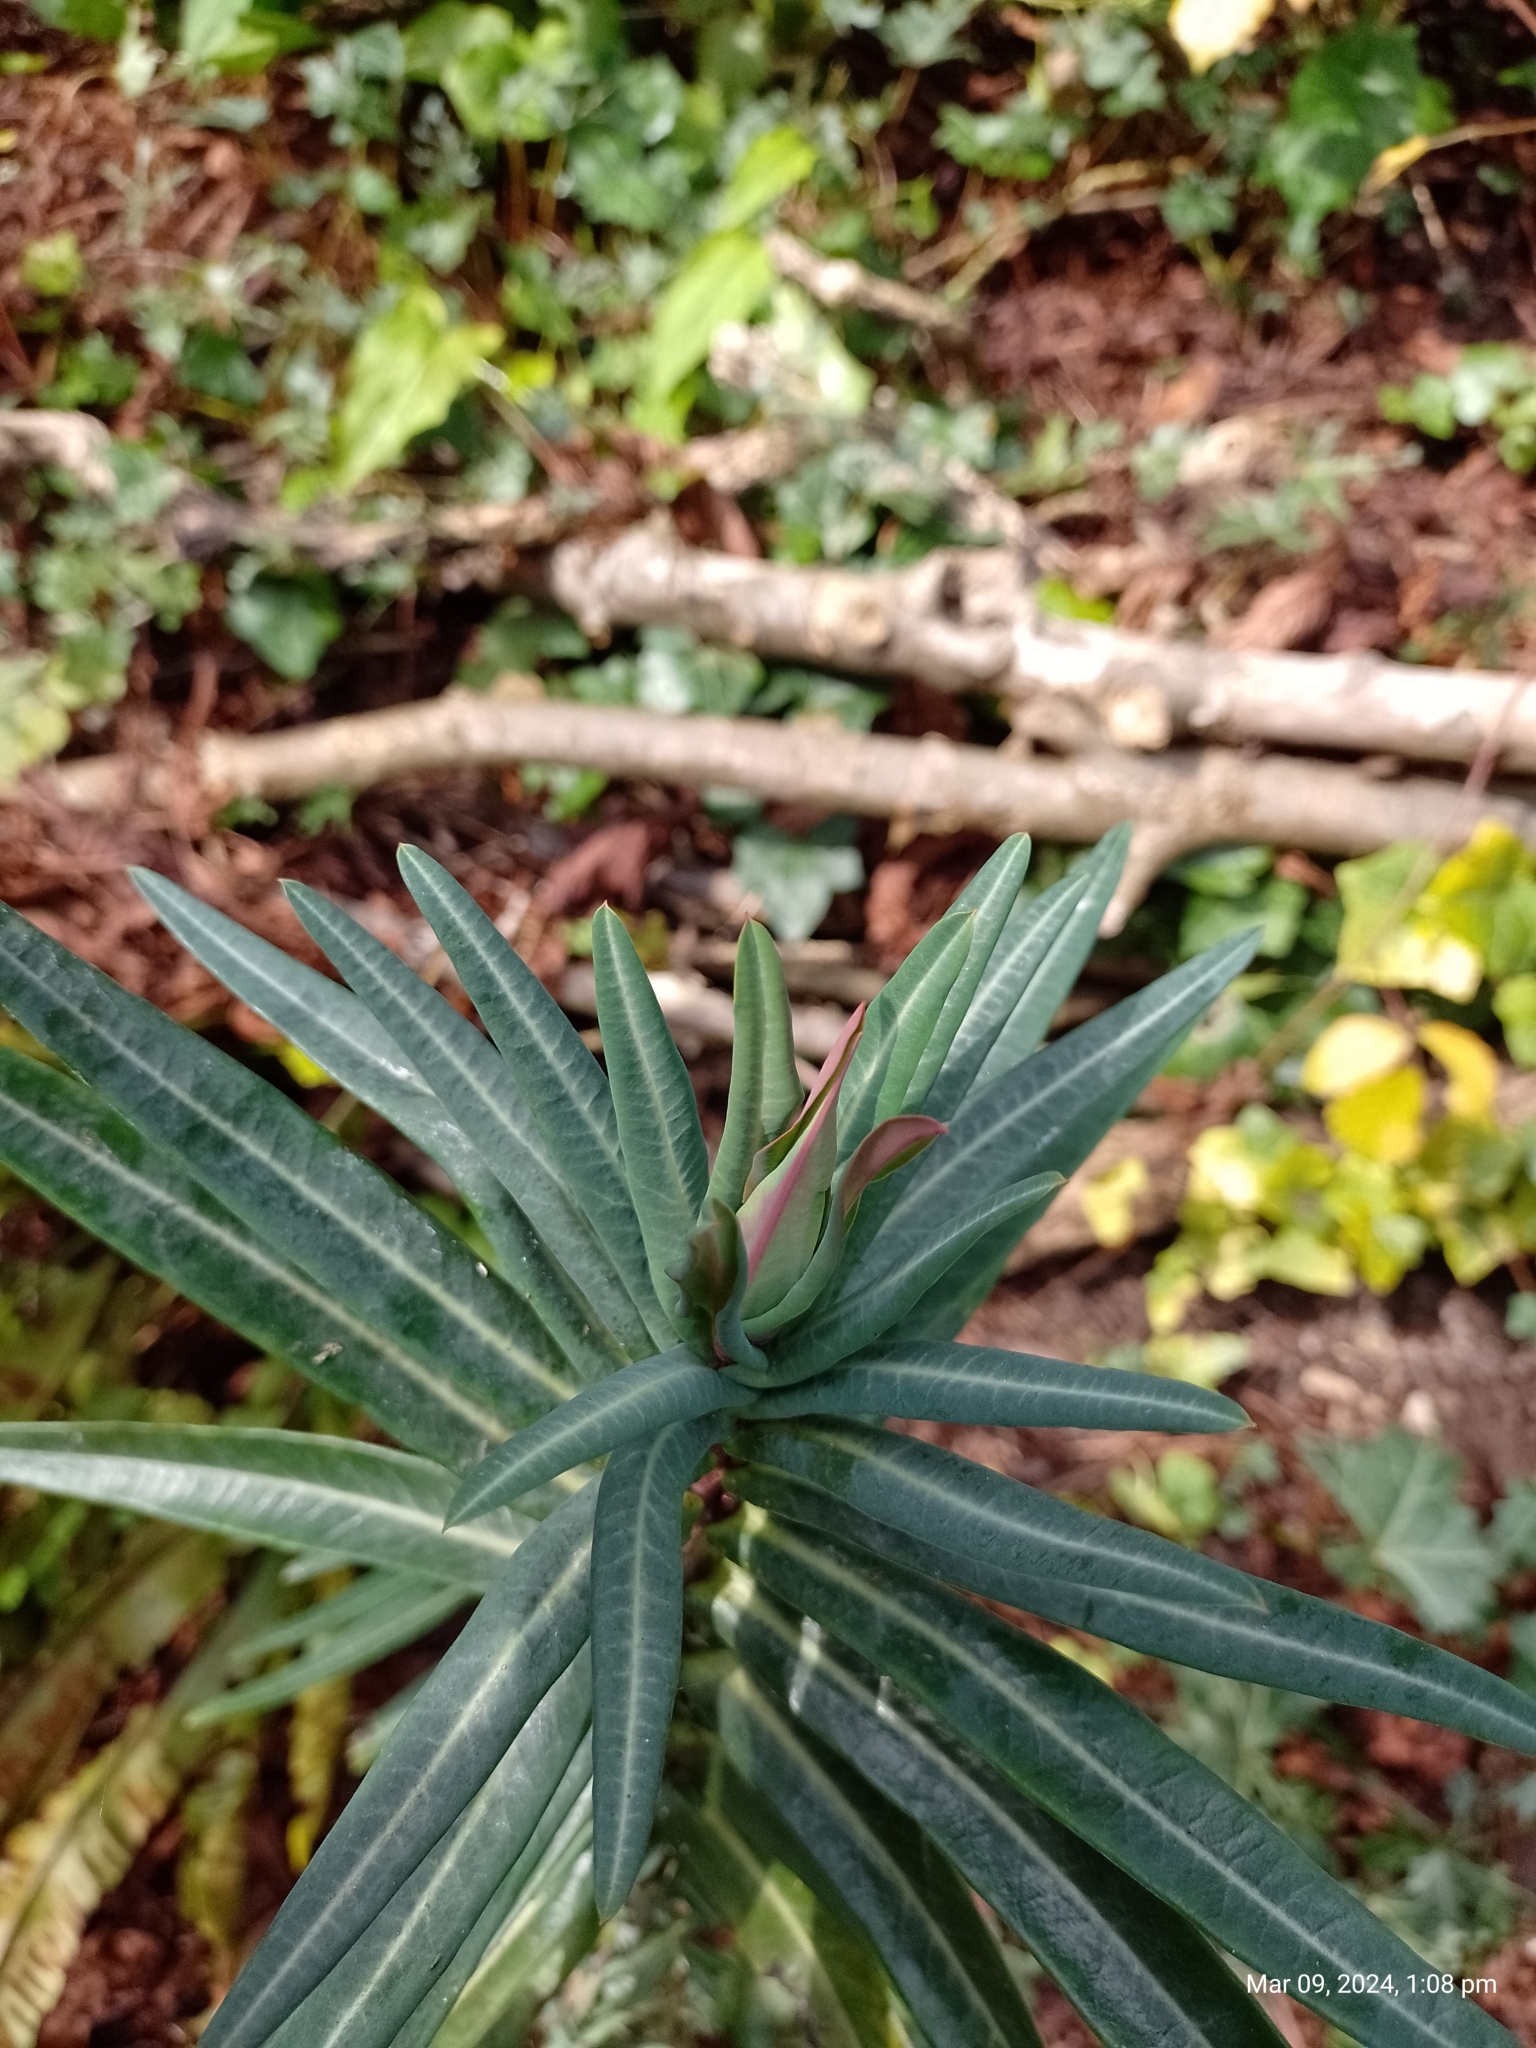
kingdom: Plantae
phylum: Tracheophyta
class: Magnoliopsida
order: Malpighiales
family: Euphorbiaceae
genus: Euphorbia
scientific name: Euphorbia lathyris
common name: Caper spurge
